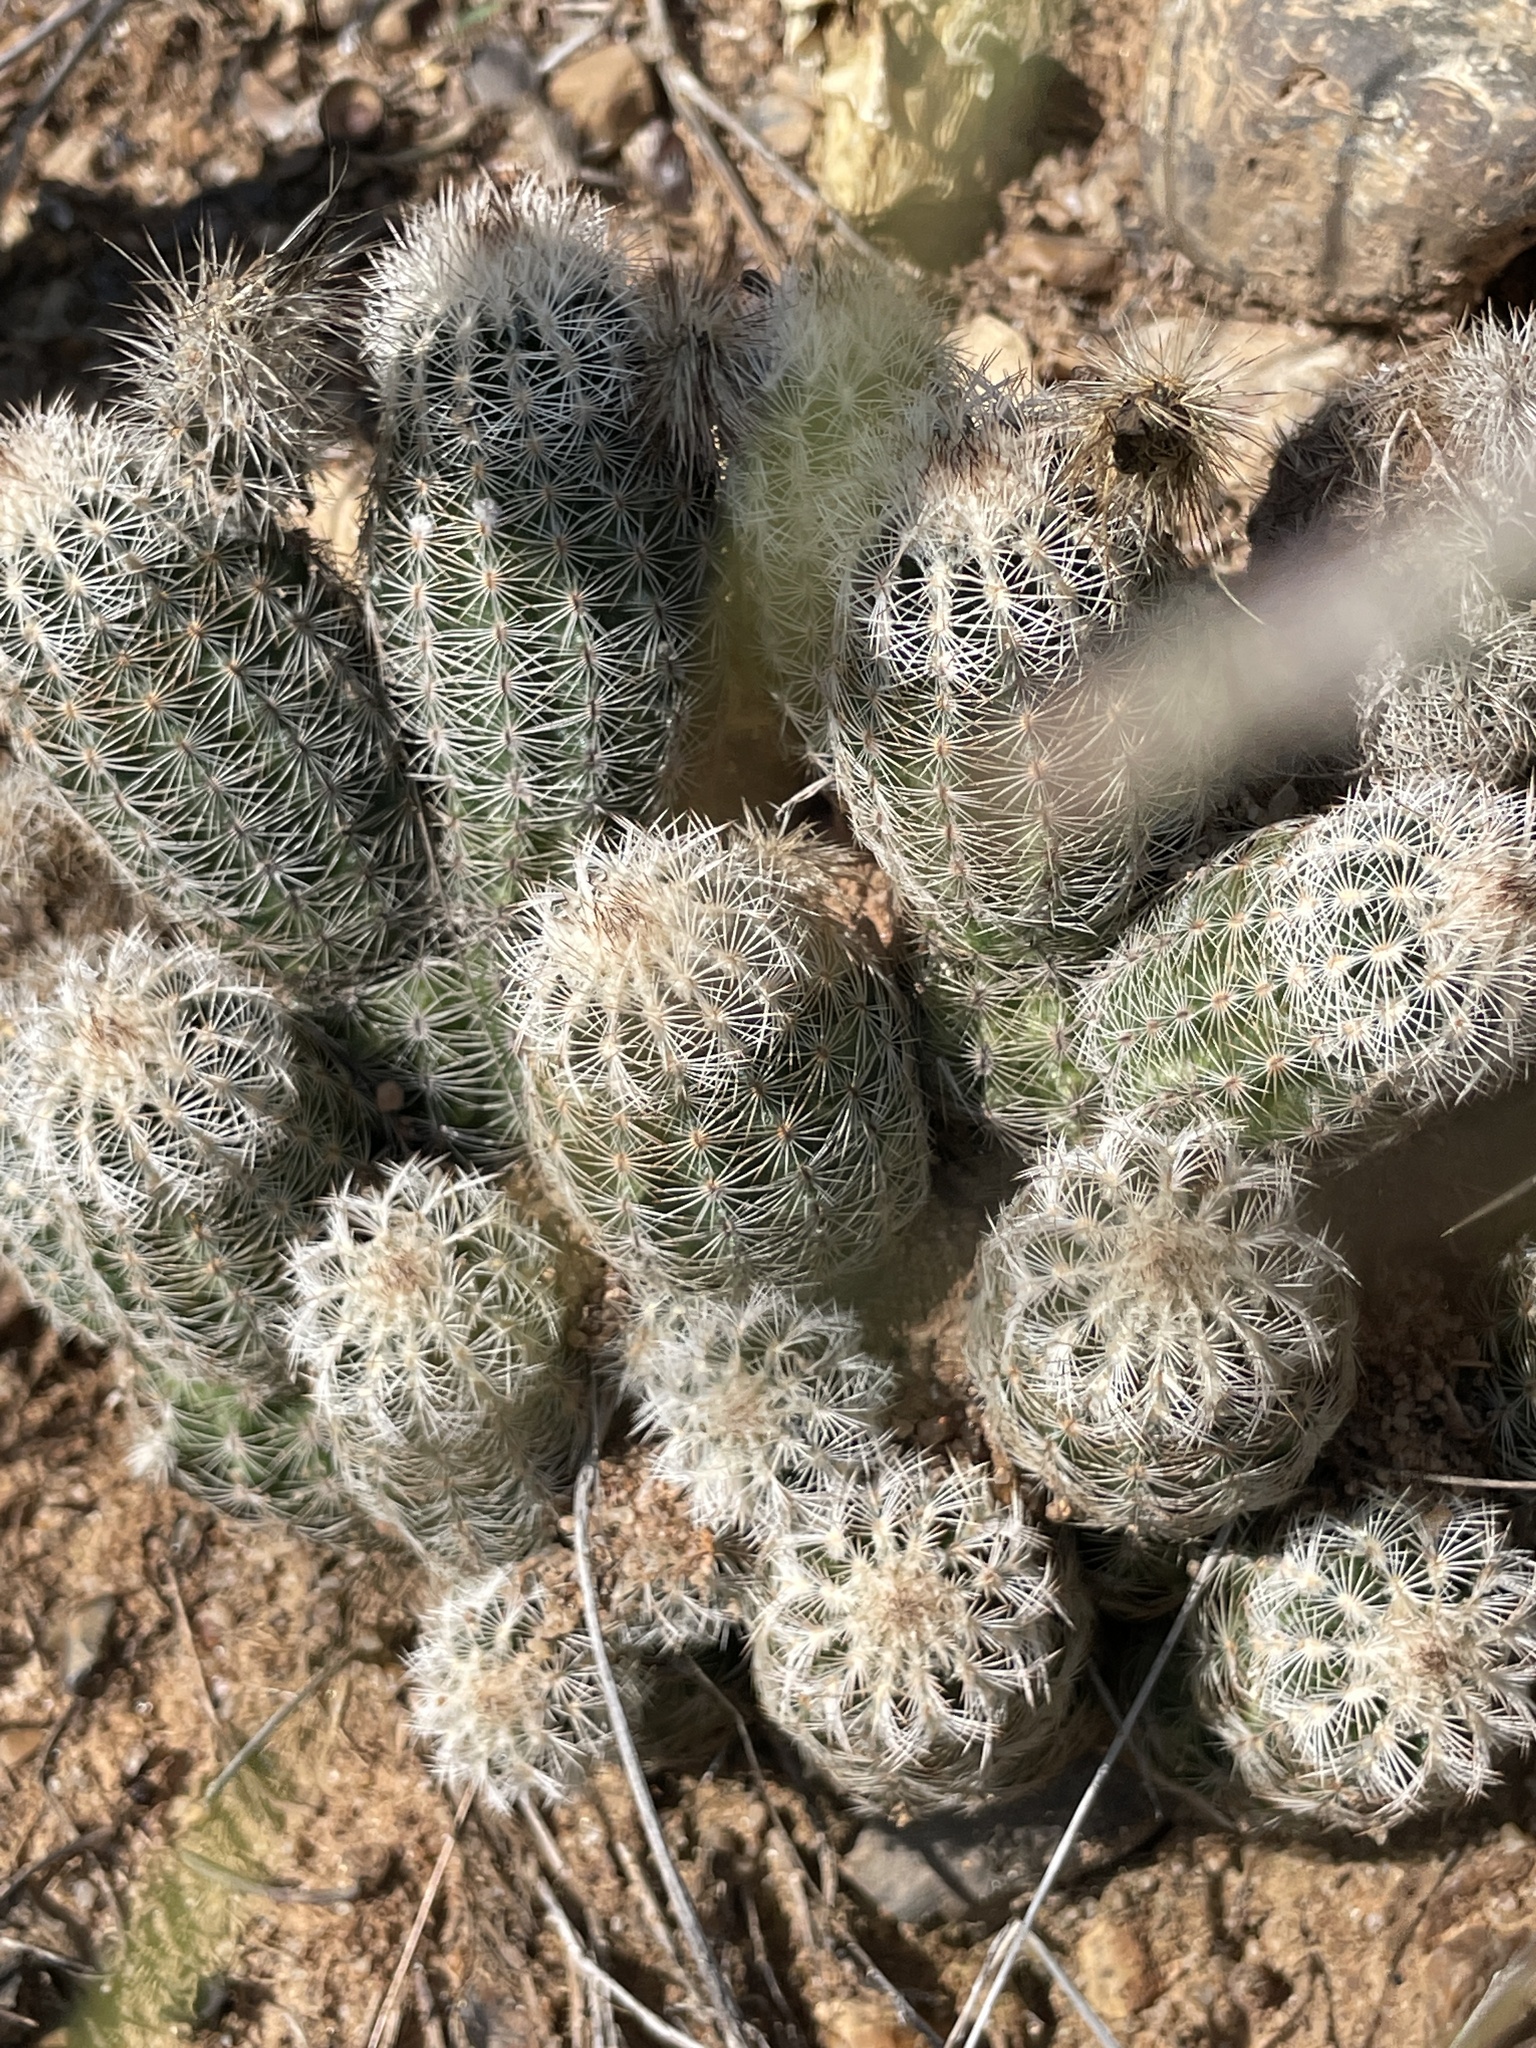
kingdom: Plantae
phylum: Tracheophyta
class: Magnoliopsida
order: Caryophyllales
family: Cactaceae
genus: Echinocereus
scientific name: Echinocereus reichenbachii
